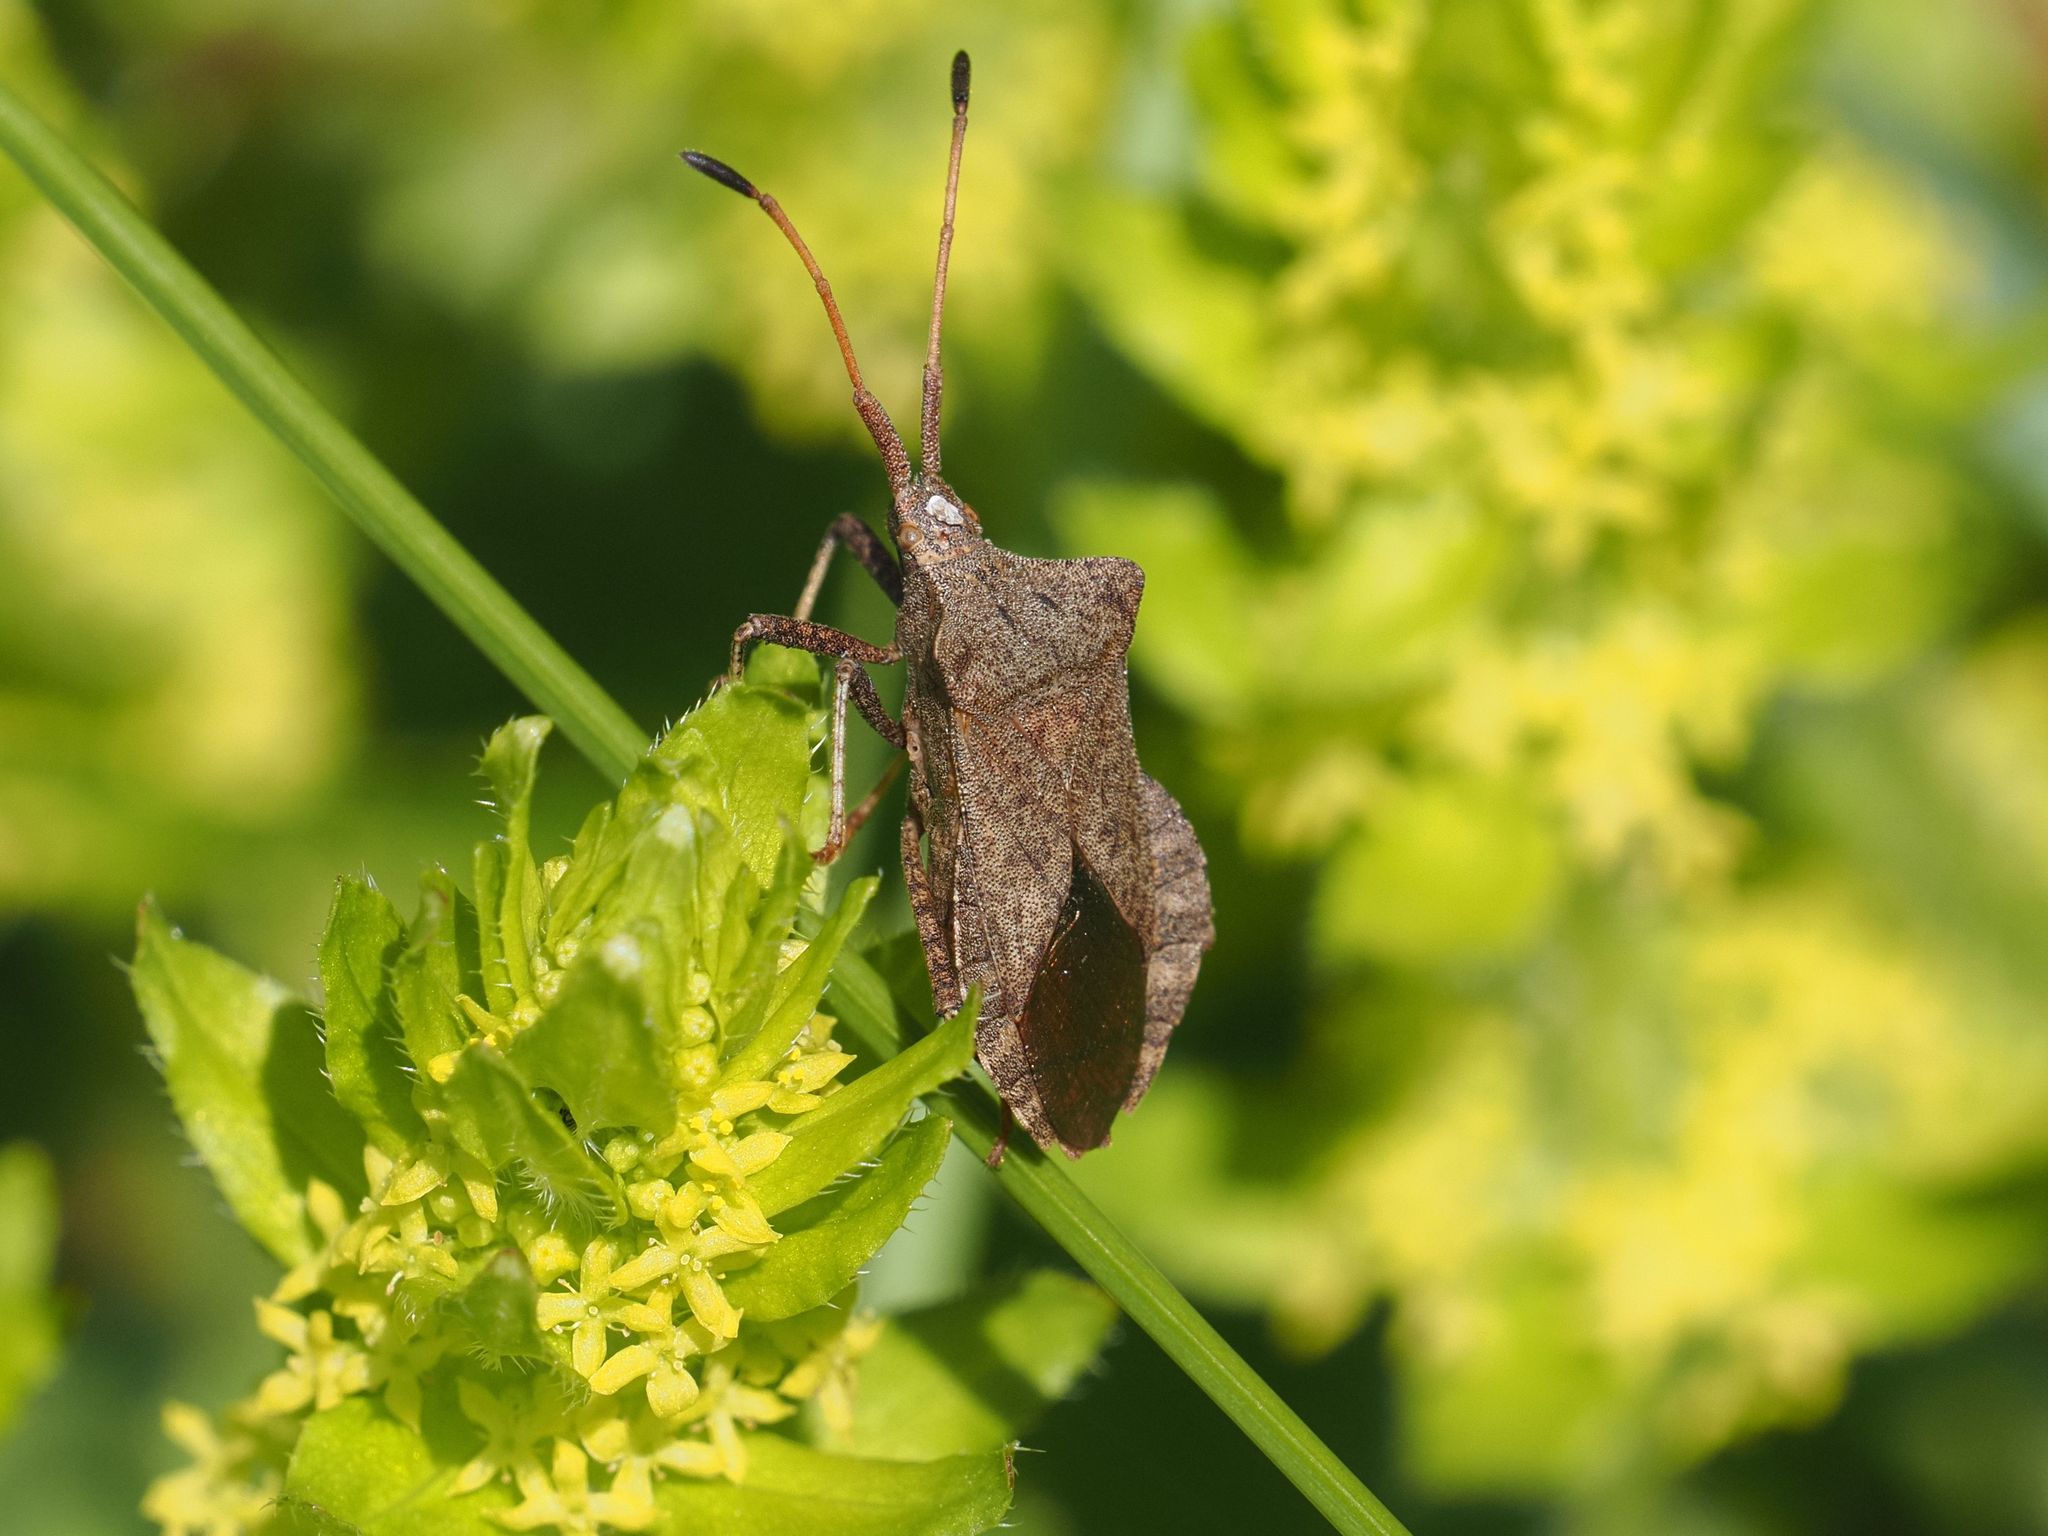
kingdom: Animalia
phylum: Arthropoda
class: Insecta
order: Hemiptera
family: Coreidae
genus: Coreus
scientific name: Coreus marginatus
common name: Dock bug
